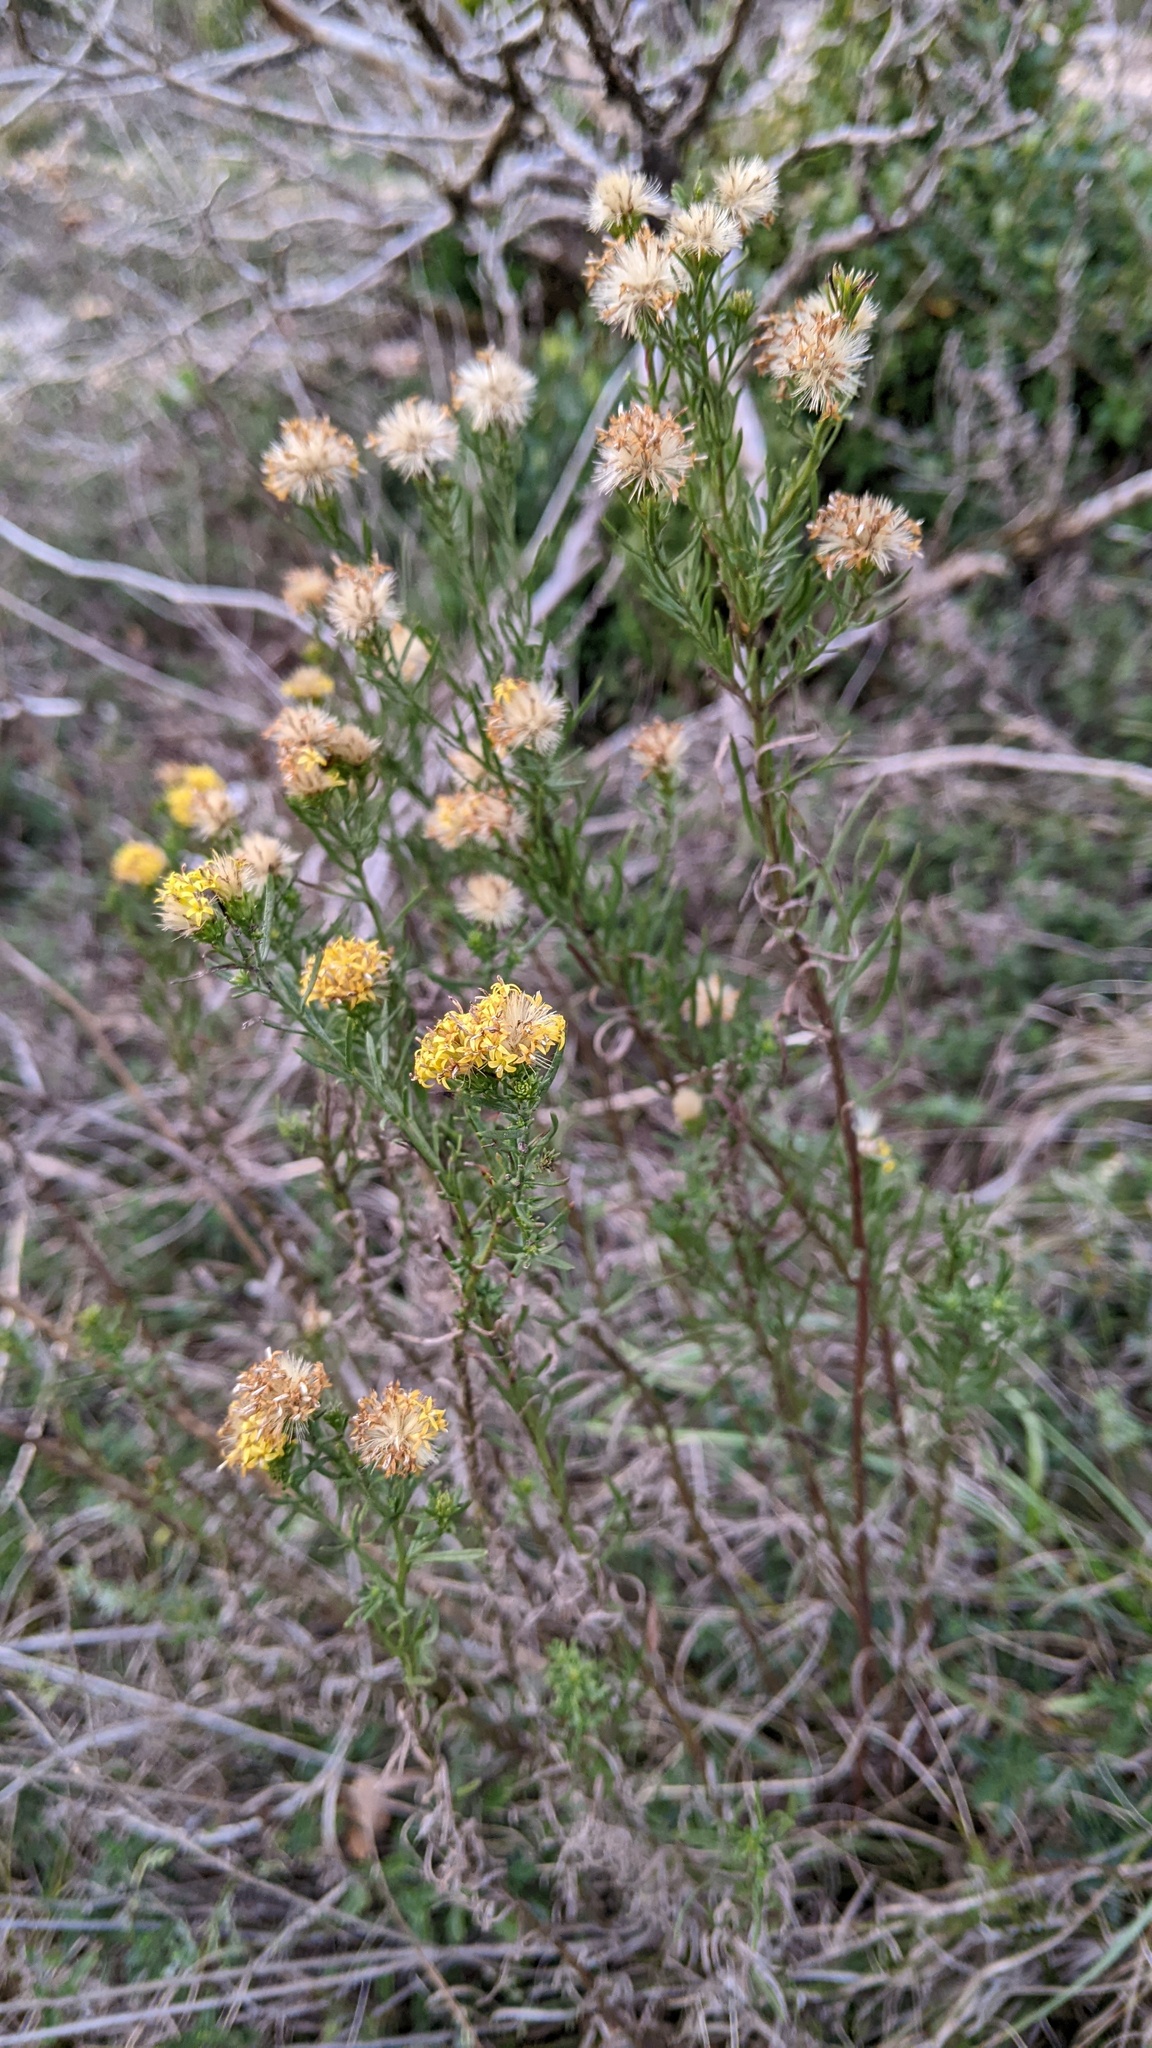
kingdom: Plantae
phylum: Tracheophyta
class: Magnoliopsida
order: Asterales
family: Asteraceae
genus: Galatella
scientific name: Galatella linosyris
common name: Goldilocks aster
